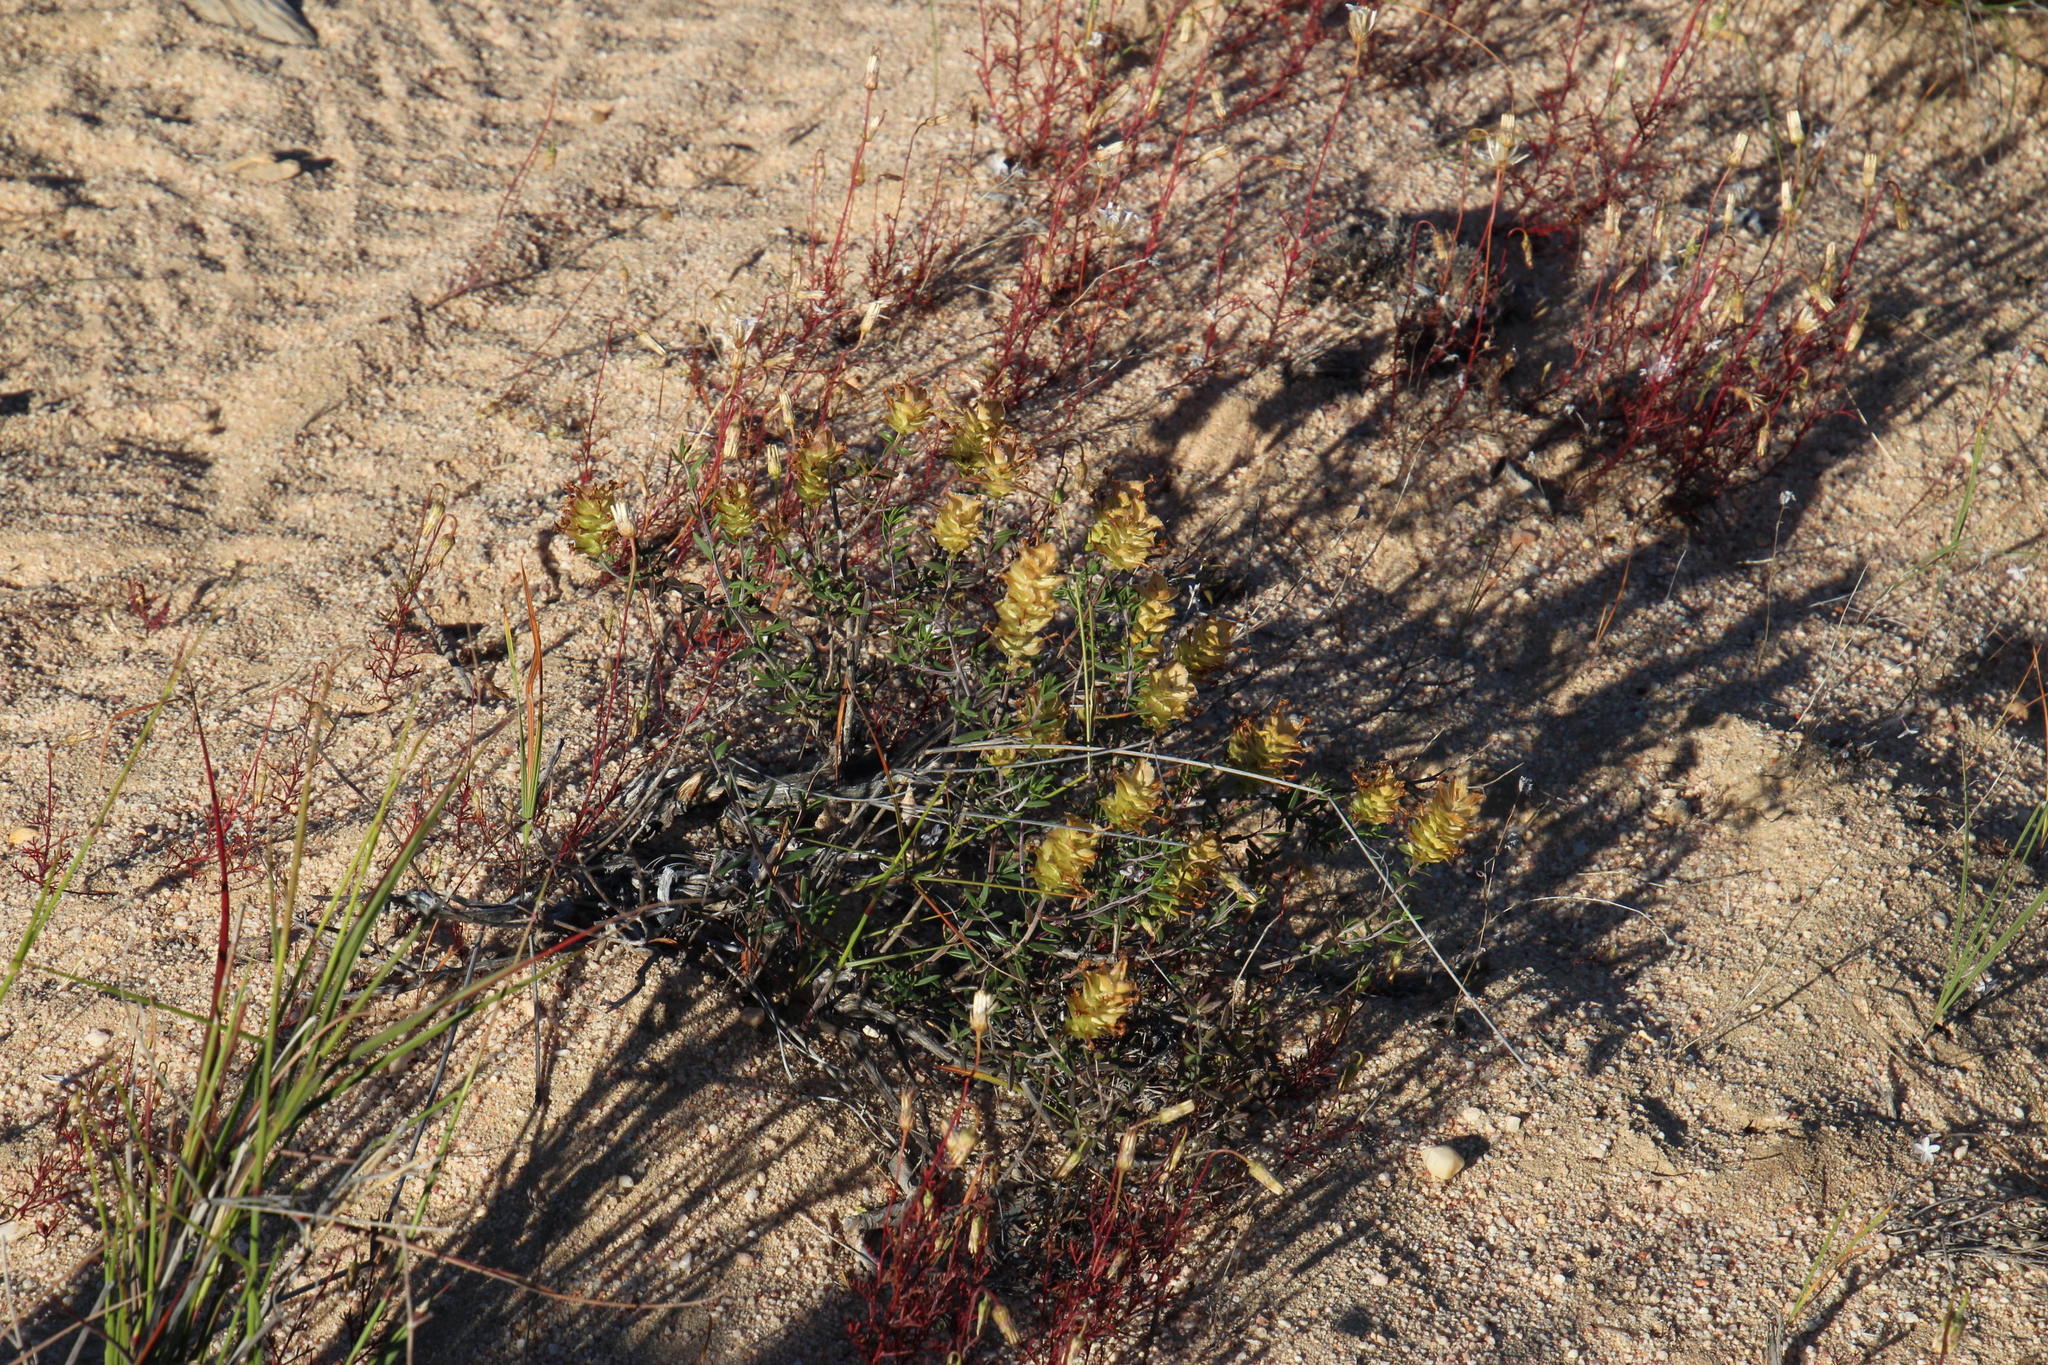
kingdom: Plantae
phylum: Tracheophyta
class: Magnoliopsida
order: Lamiales
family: Scrophulariaceae
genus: Microdon
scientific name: Microdon orbicularis
